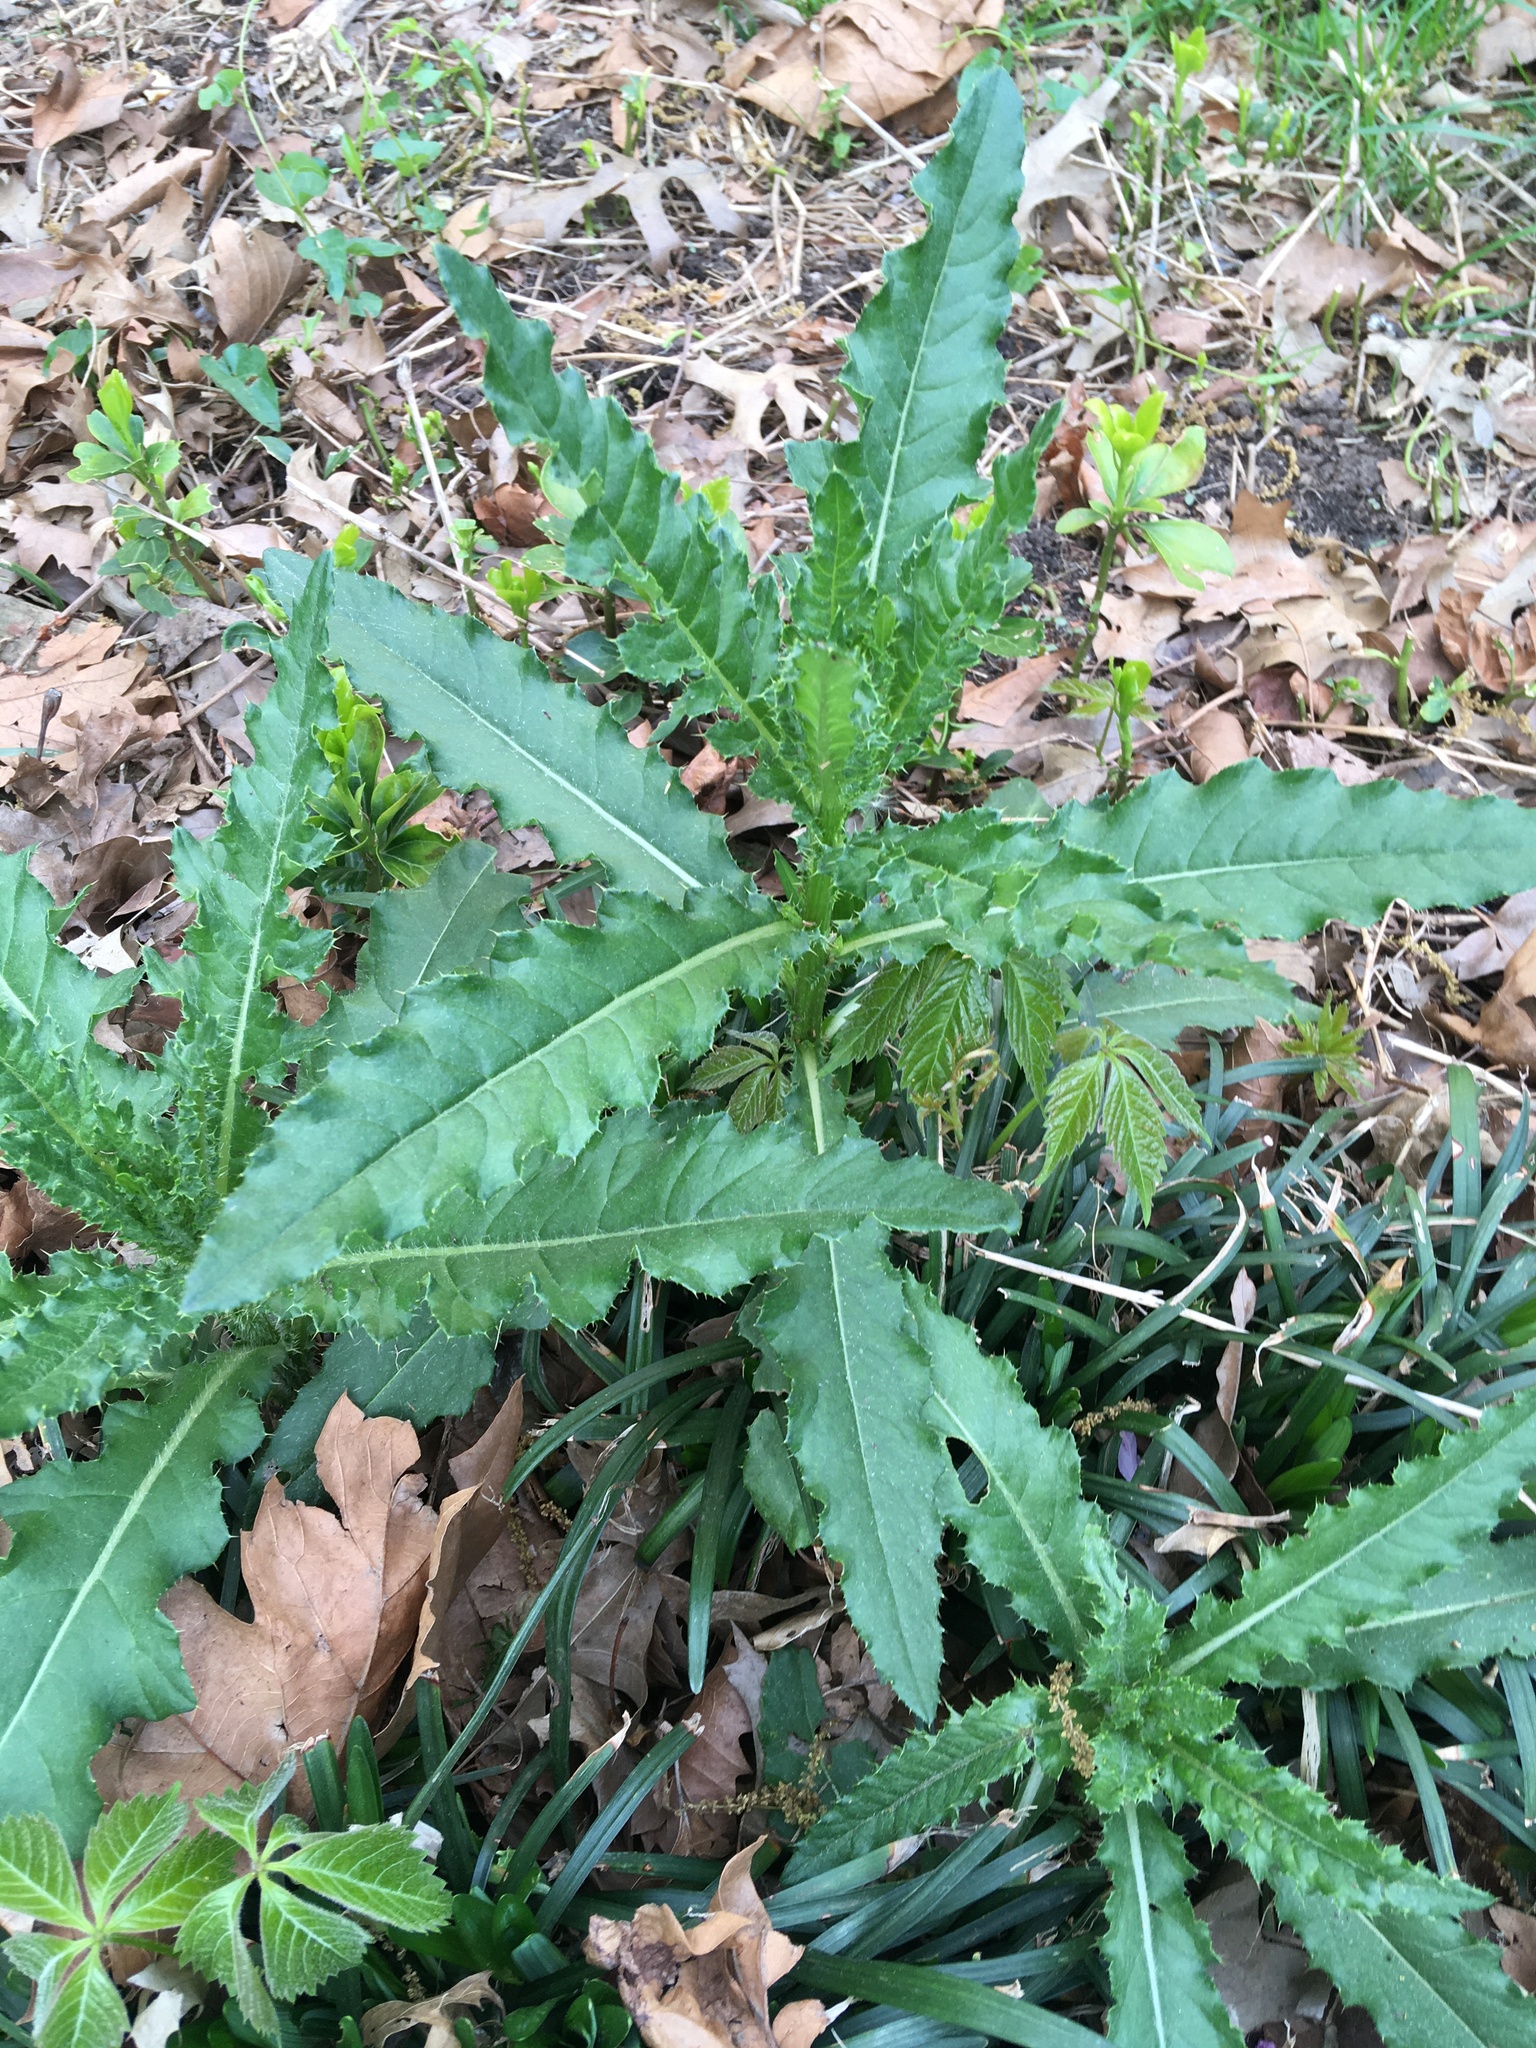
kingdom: Plantae
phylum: Tracheophyta
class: Magnoliopsida
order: Asterales
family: Asteraceae
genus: Cirsium
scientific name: Cirsium arvense
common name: Creeping thistle
